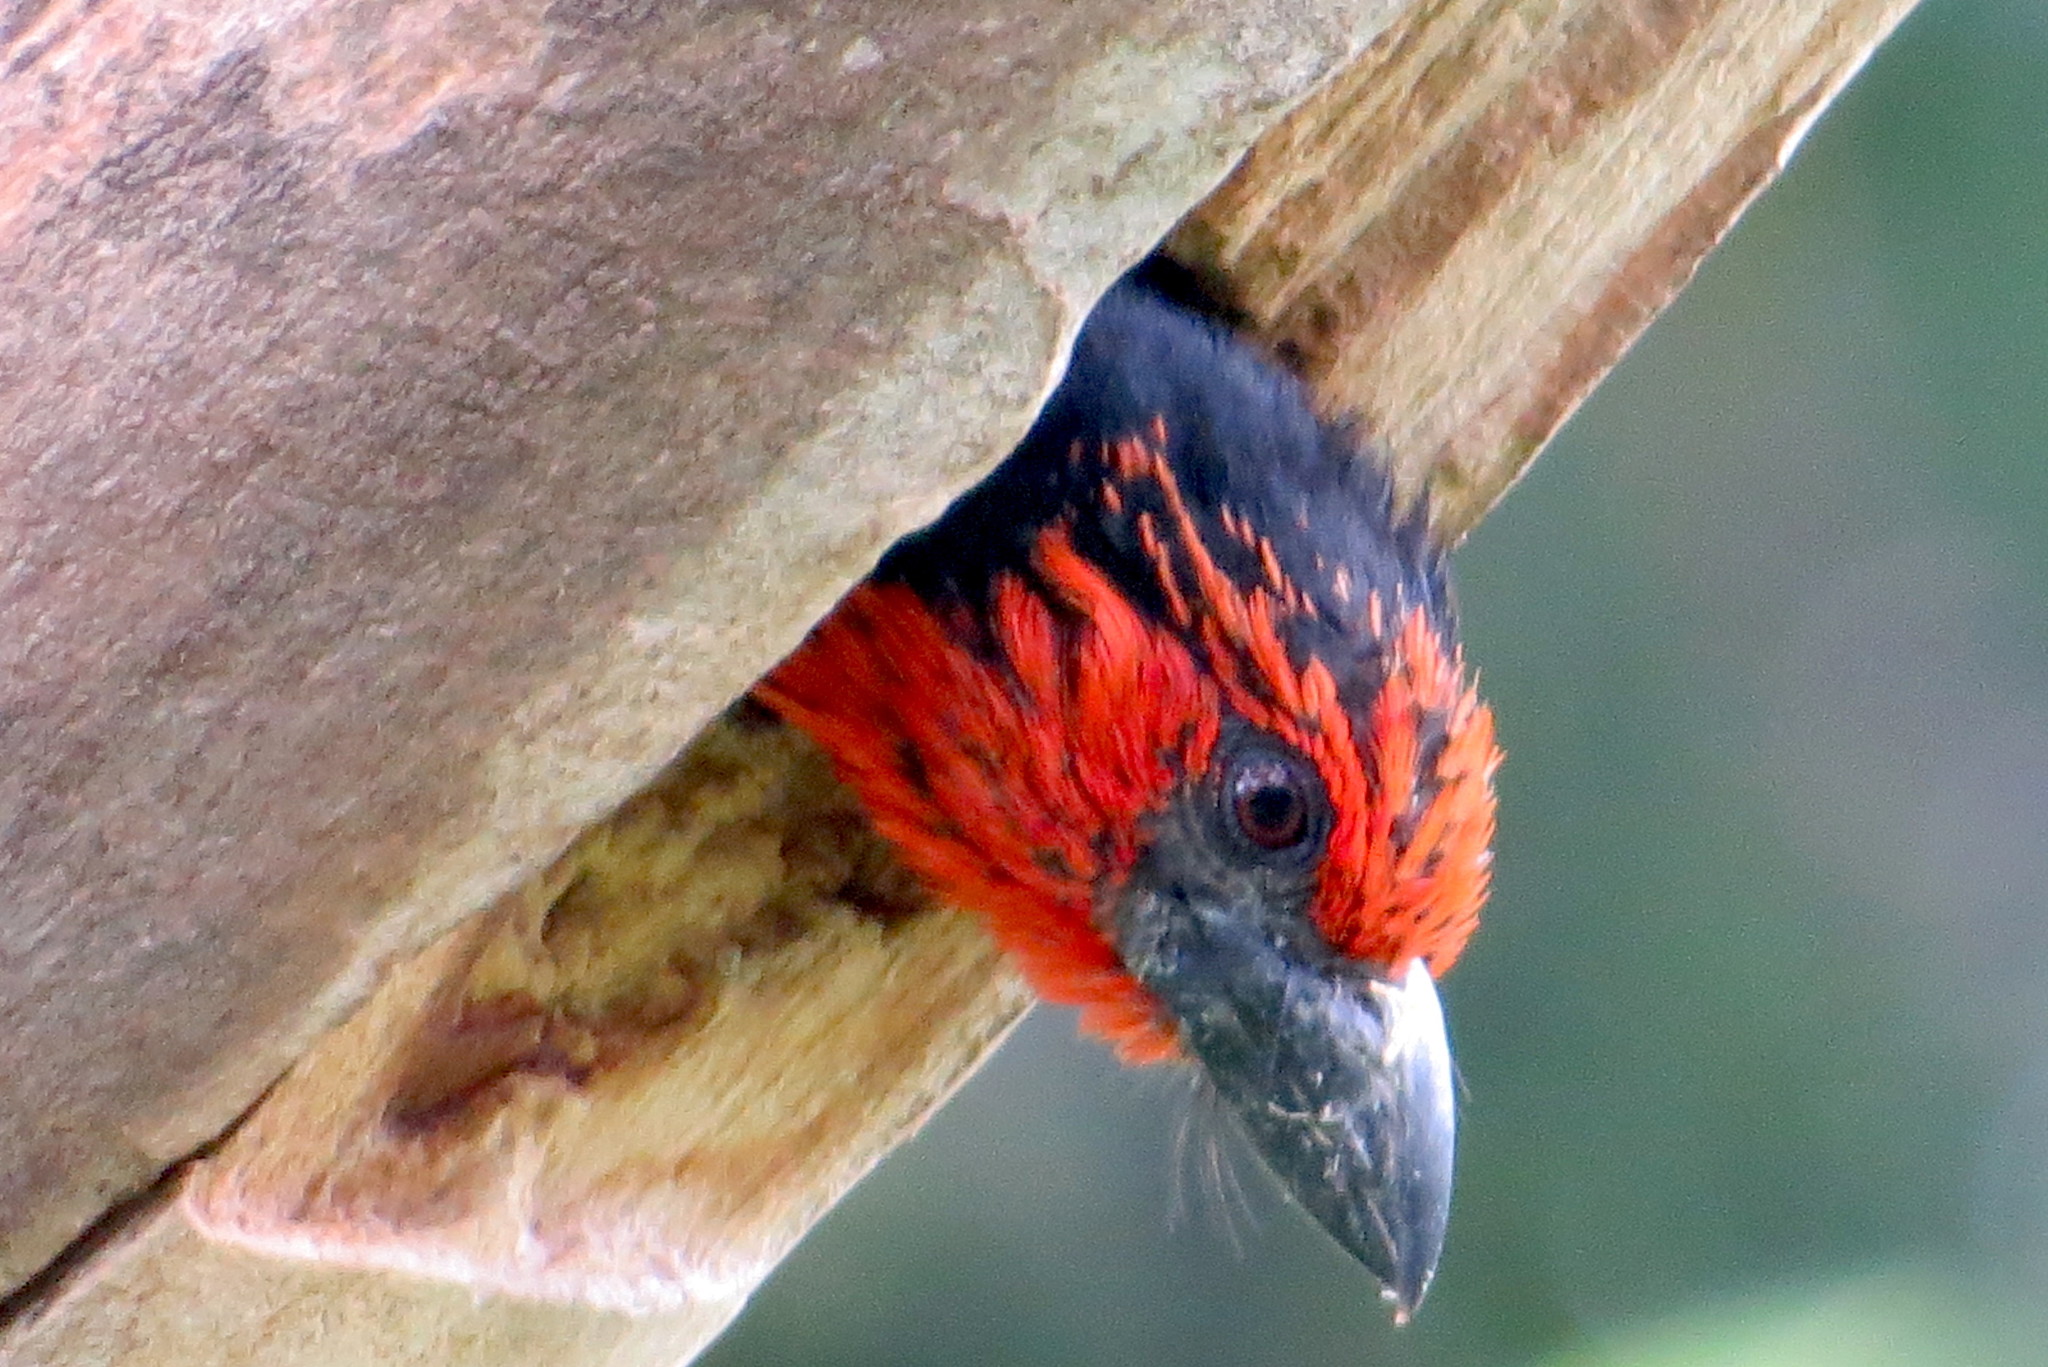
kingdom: Animalia
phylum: Chordata
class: Aves
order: Piciformes
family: Lybiidae
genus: Lybius
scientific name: Lybius torquatus
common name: Black-collared barbet
